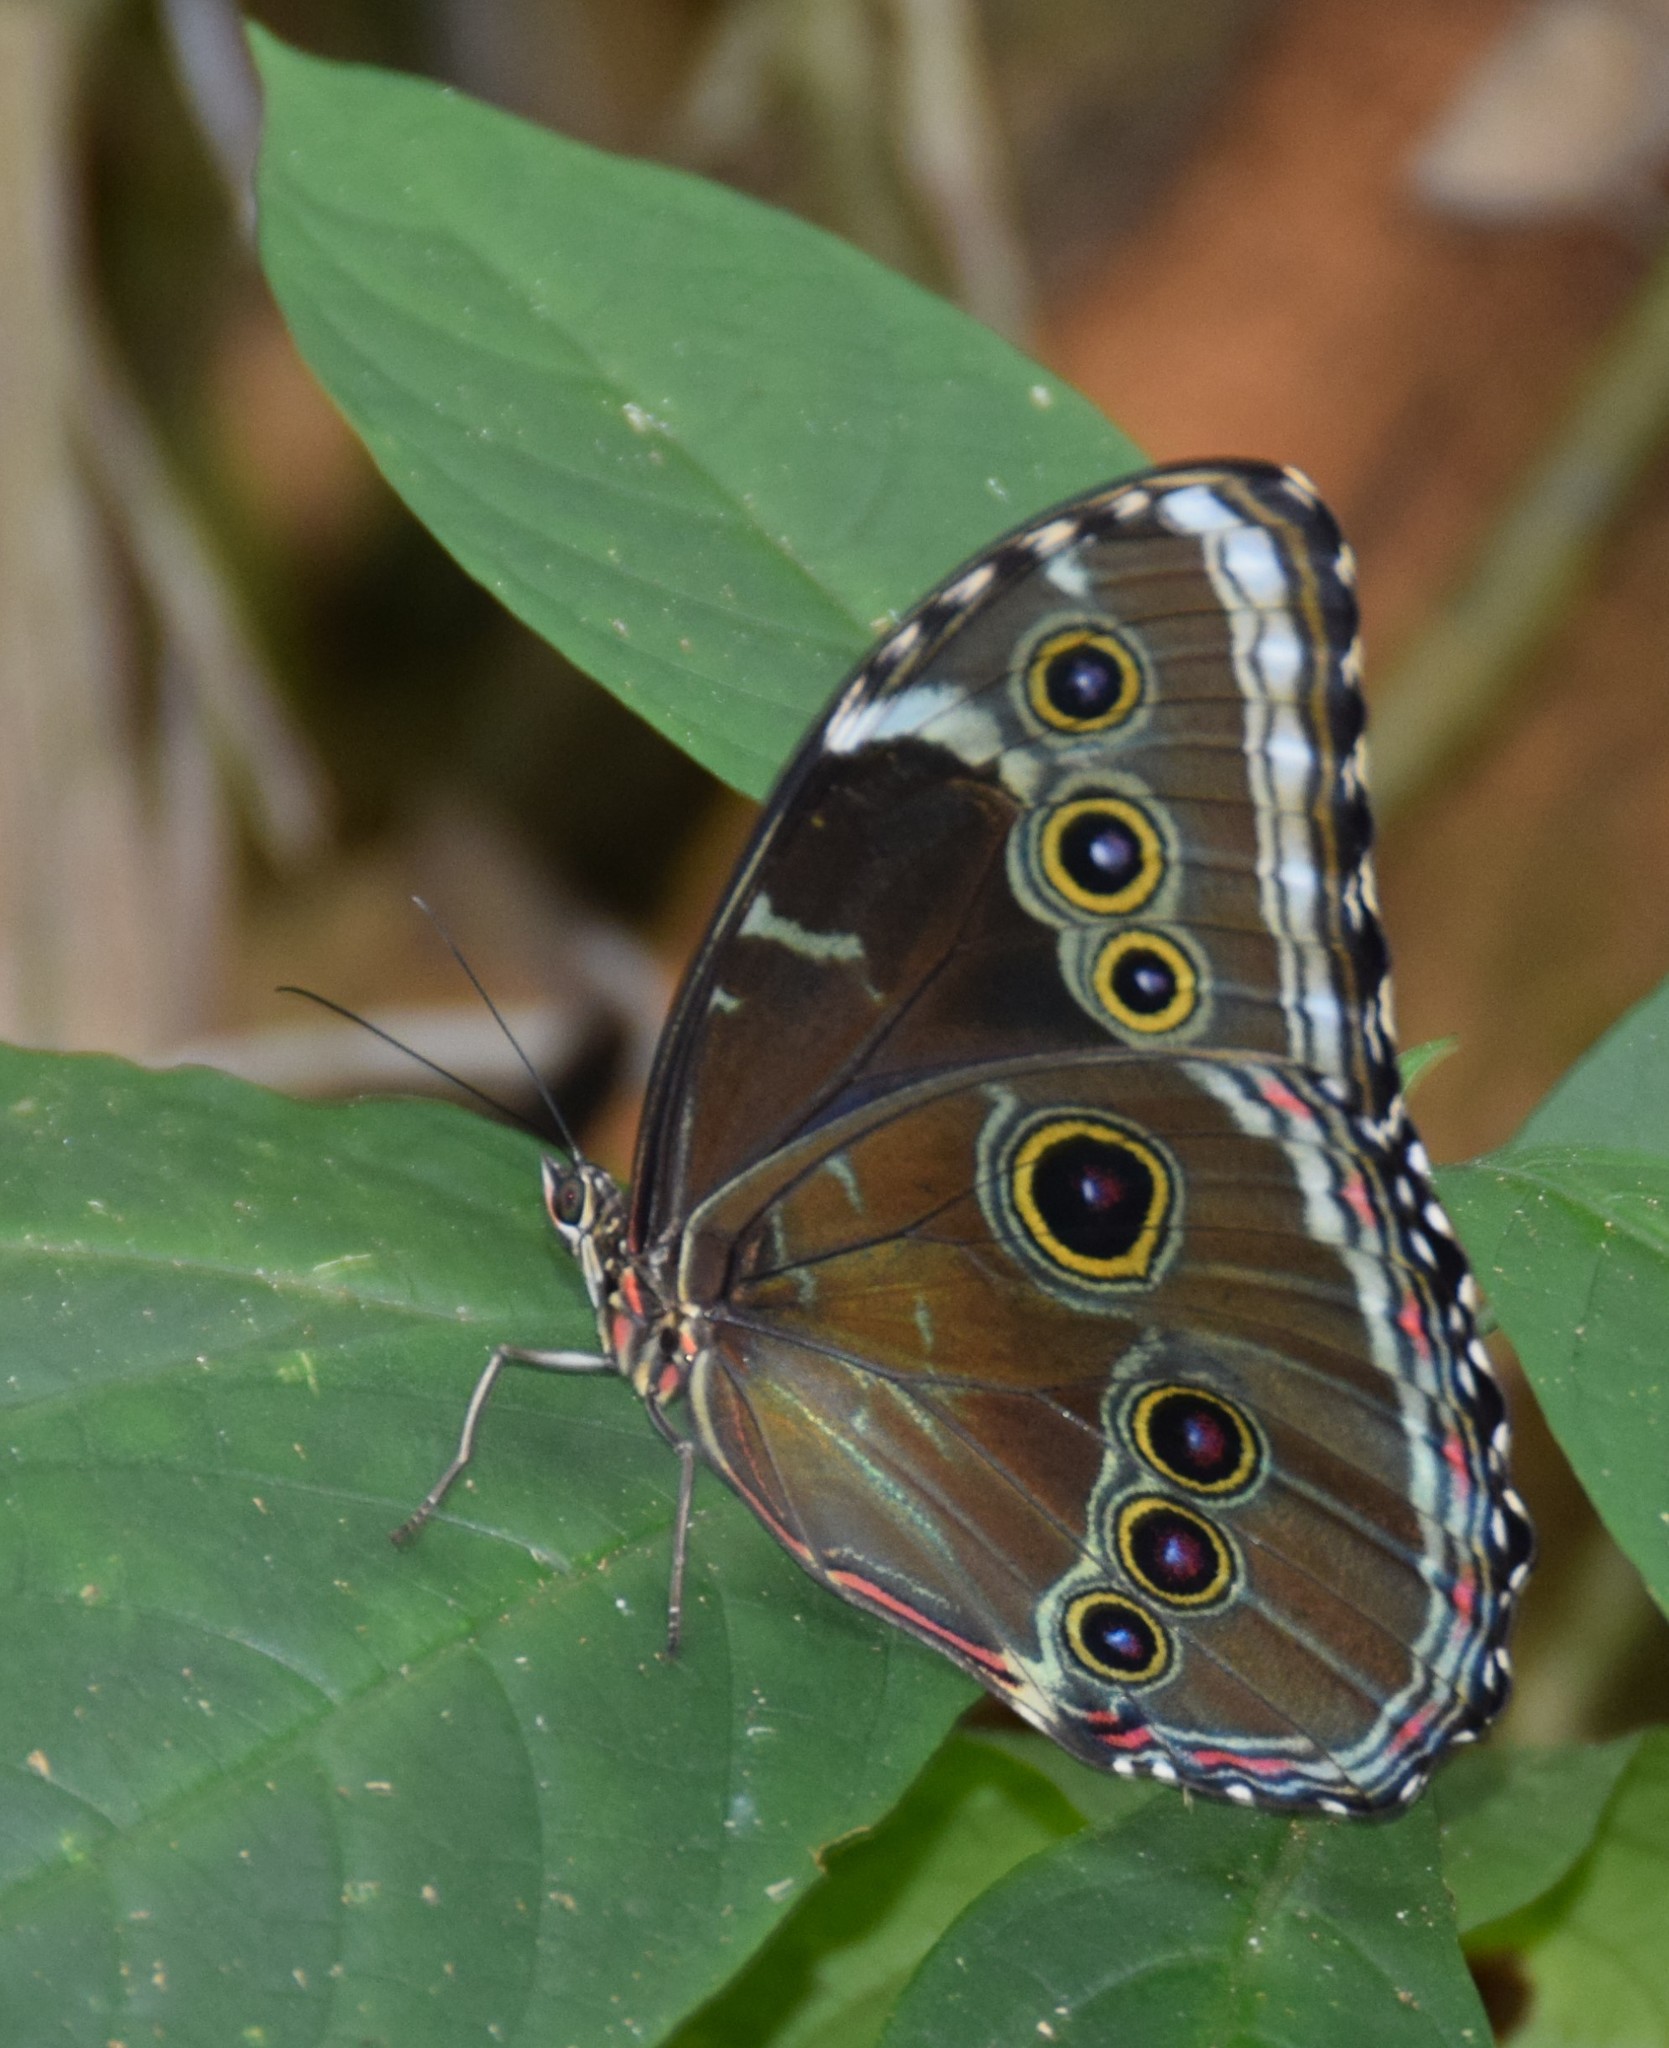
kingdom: Animalia
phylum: Arthropoda
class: Insecta
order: Lepidoptera
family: Nymphalidae
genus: Morpho
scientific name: Morpho helenor
